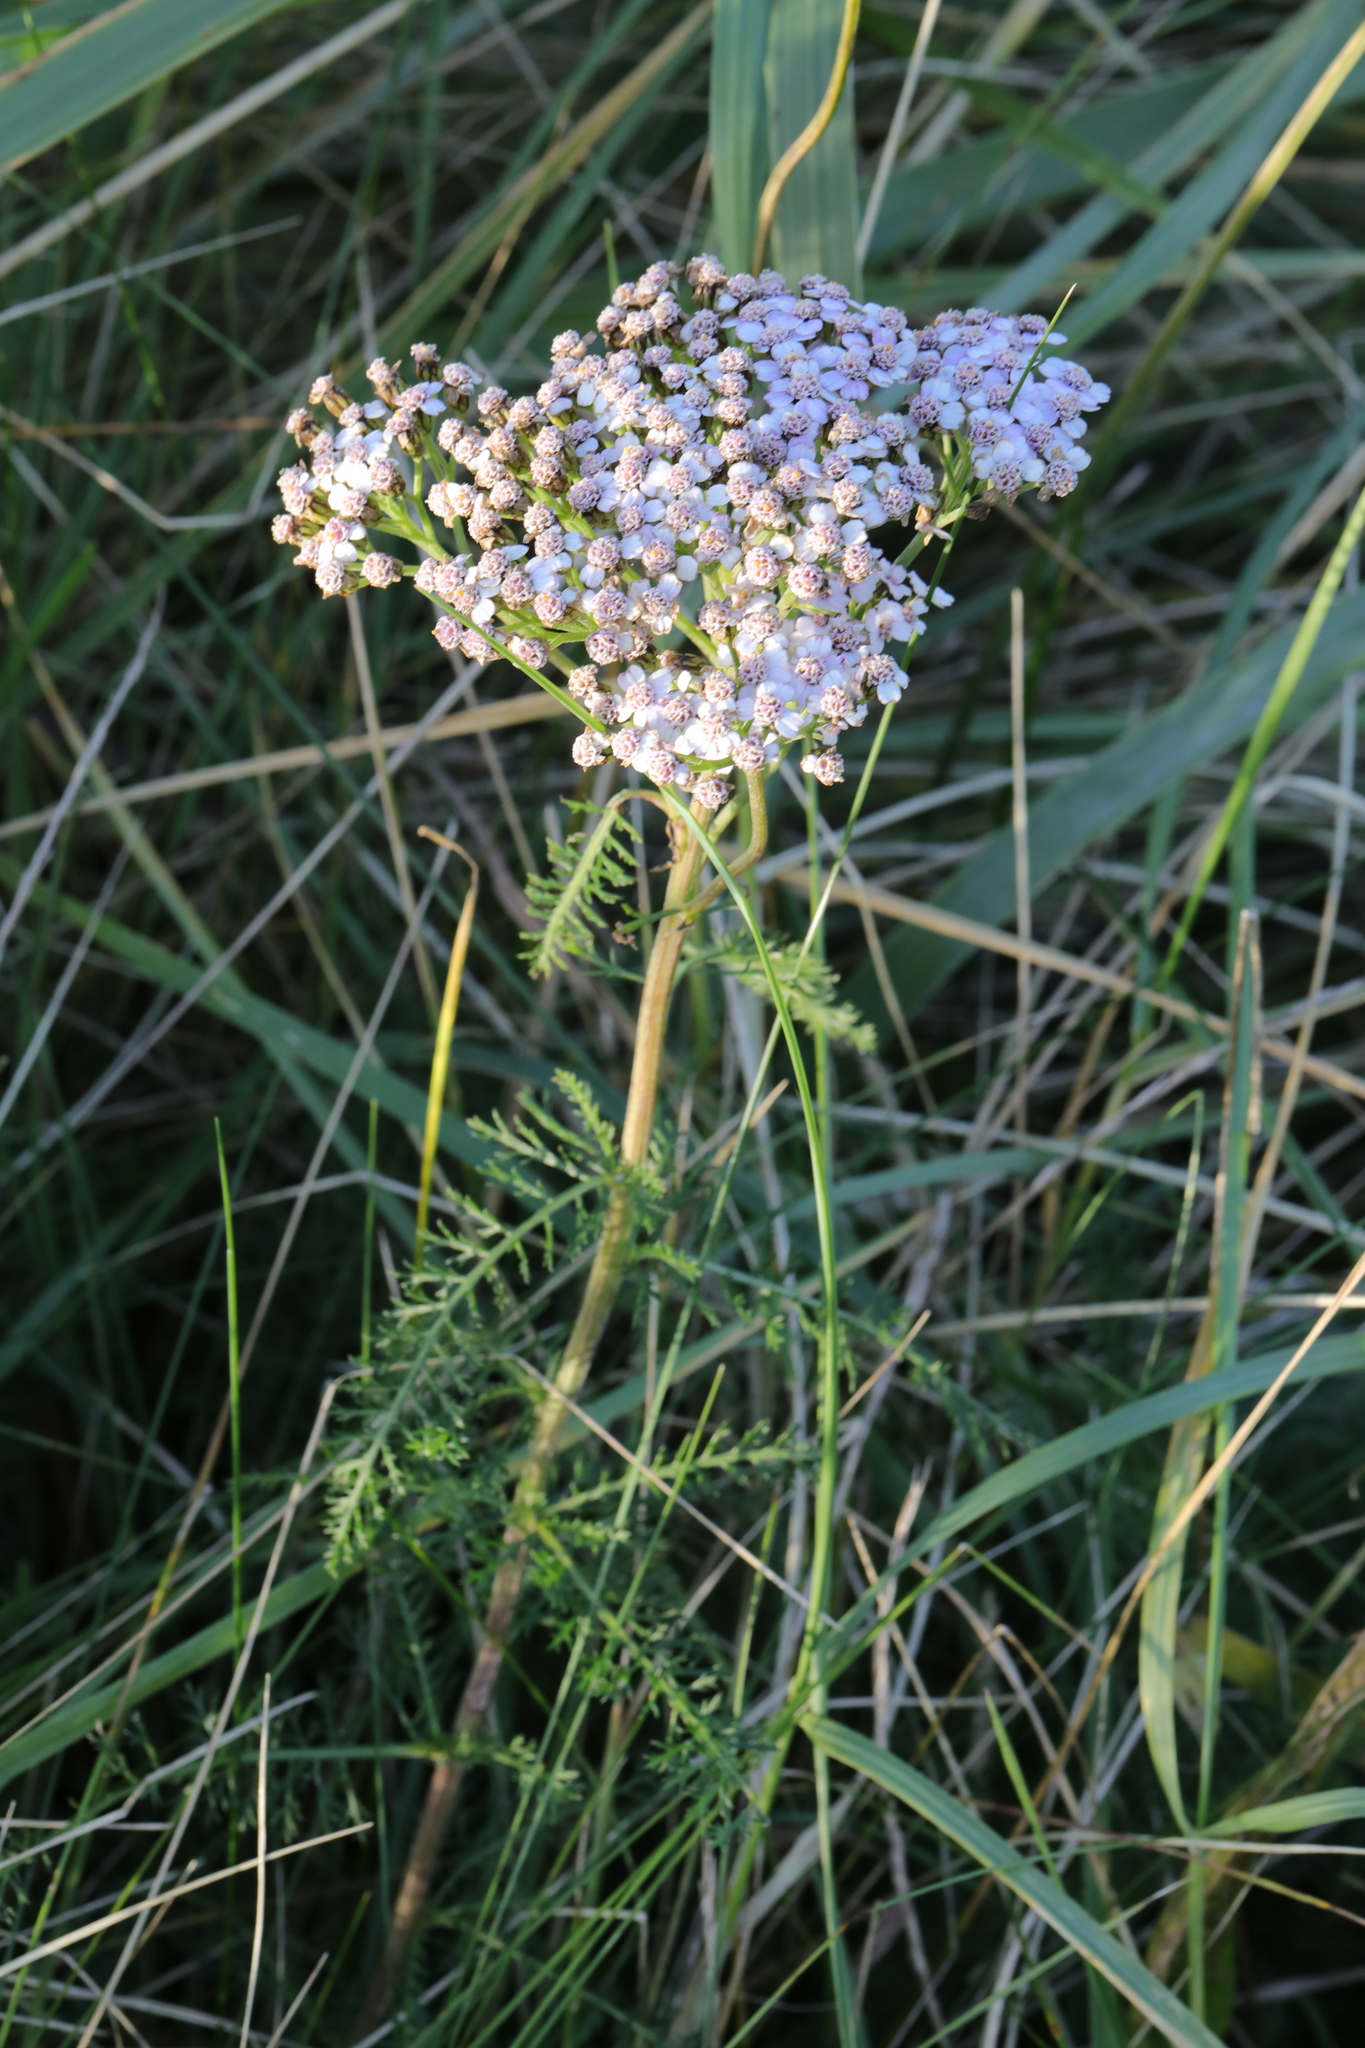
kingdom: Plantae
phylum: Tracheophyta
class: Magnoliopsida
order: Asterales
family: Asteraceae
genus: Achillea
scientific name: Achillea millefolium
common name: Yarrow
